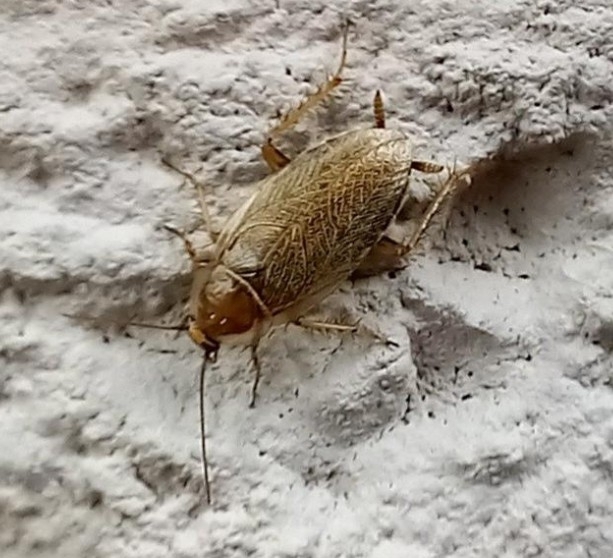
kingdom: Animalia
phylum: Arthropoda
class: Insecta
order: Blattodea
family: Ectobiidae
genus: Ectobius
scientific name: Ectobius vittiventris
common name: Garden cockroach
